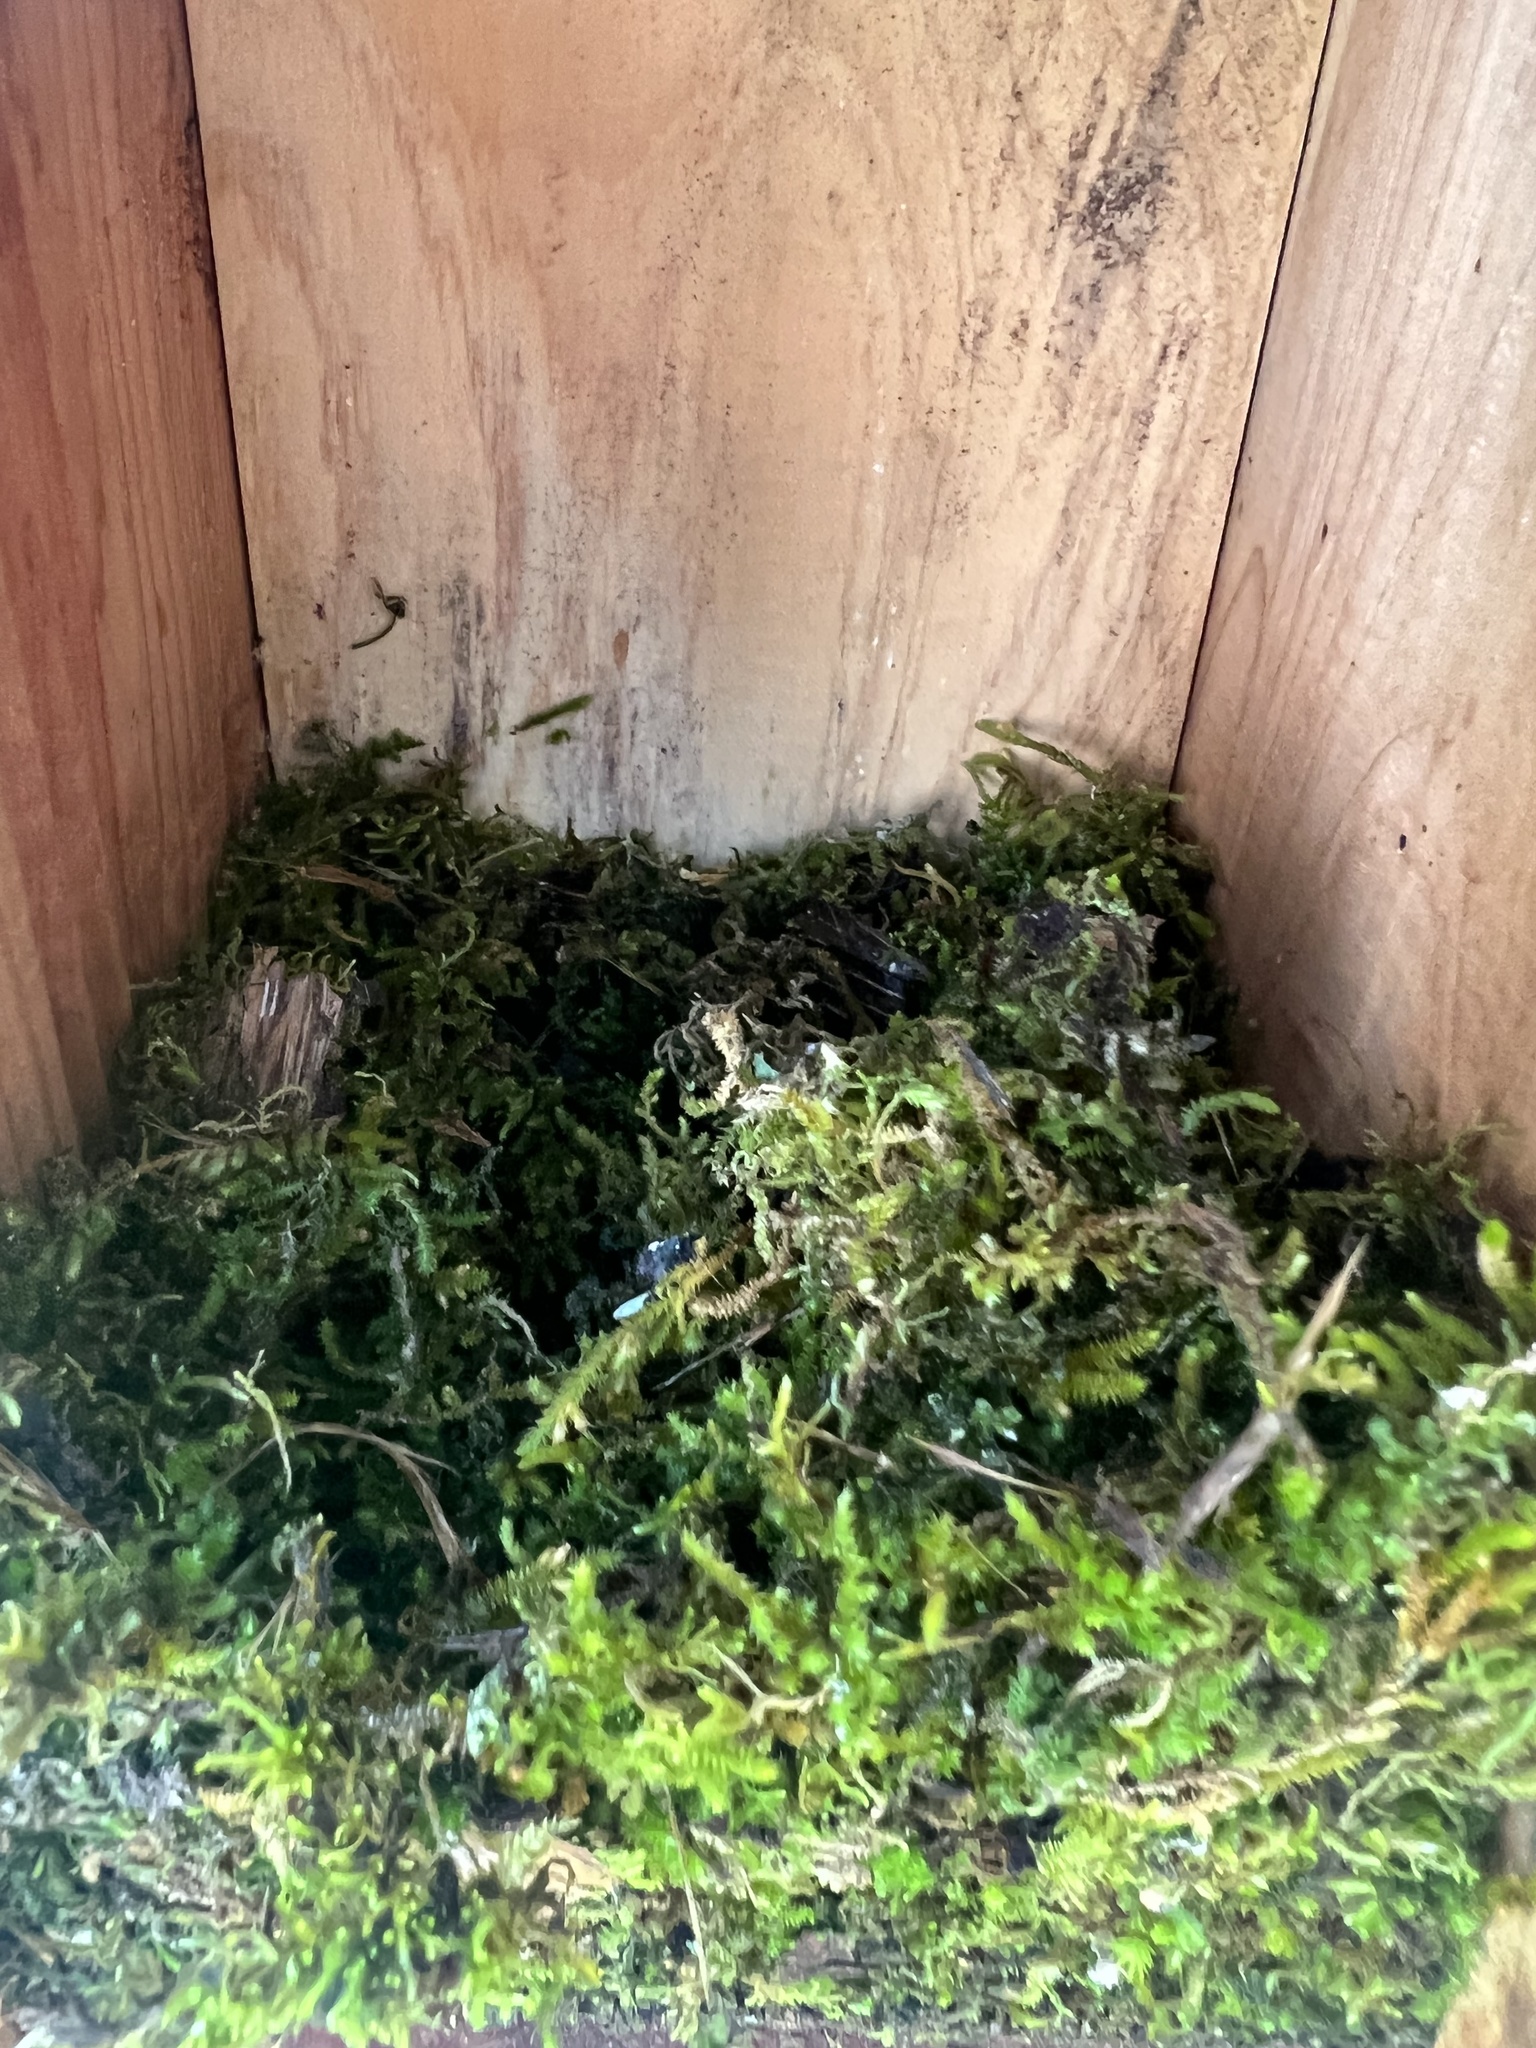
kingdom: Animalia
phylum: Chordata
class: Aves
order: Passeriformes
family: Paridae
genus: Poecile
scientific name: Poecile carolinensis
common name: Carolina chickadee
